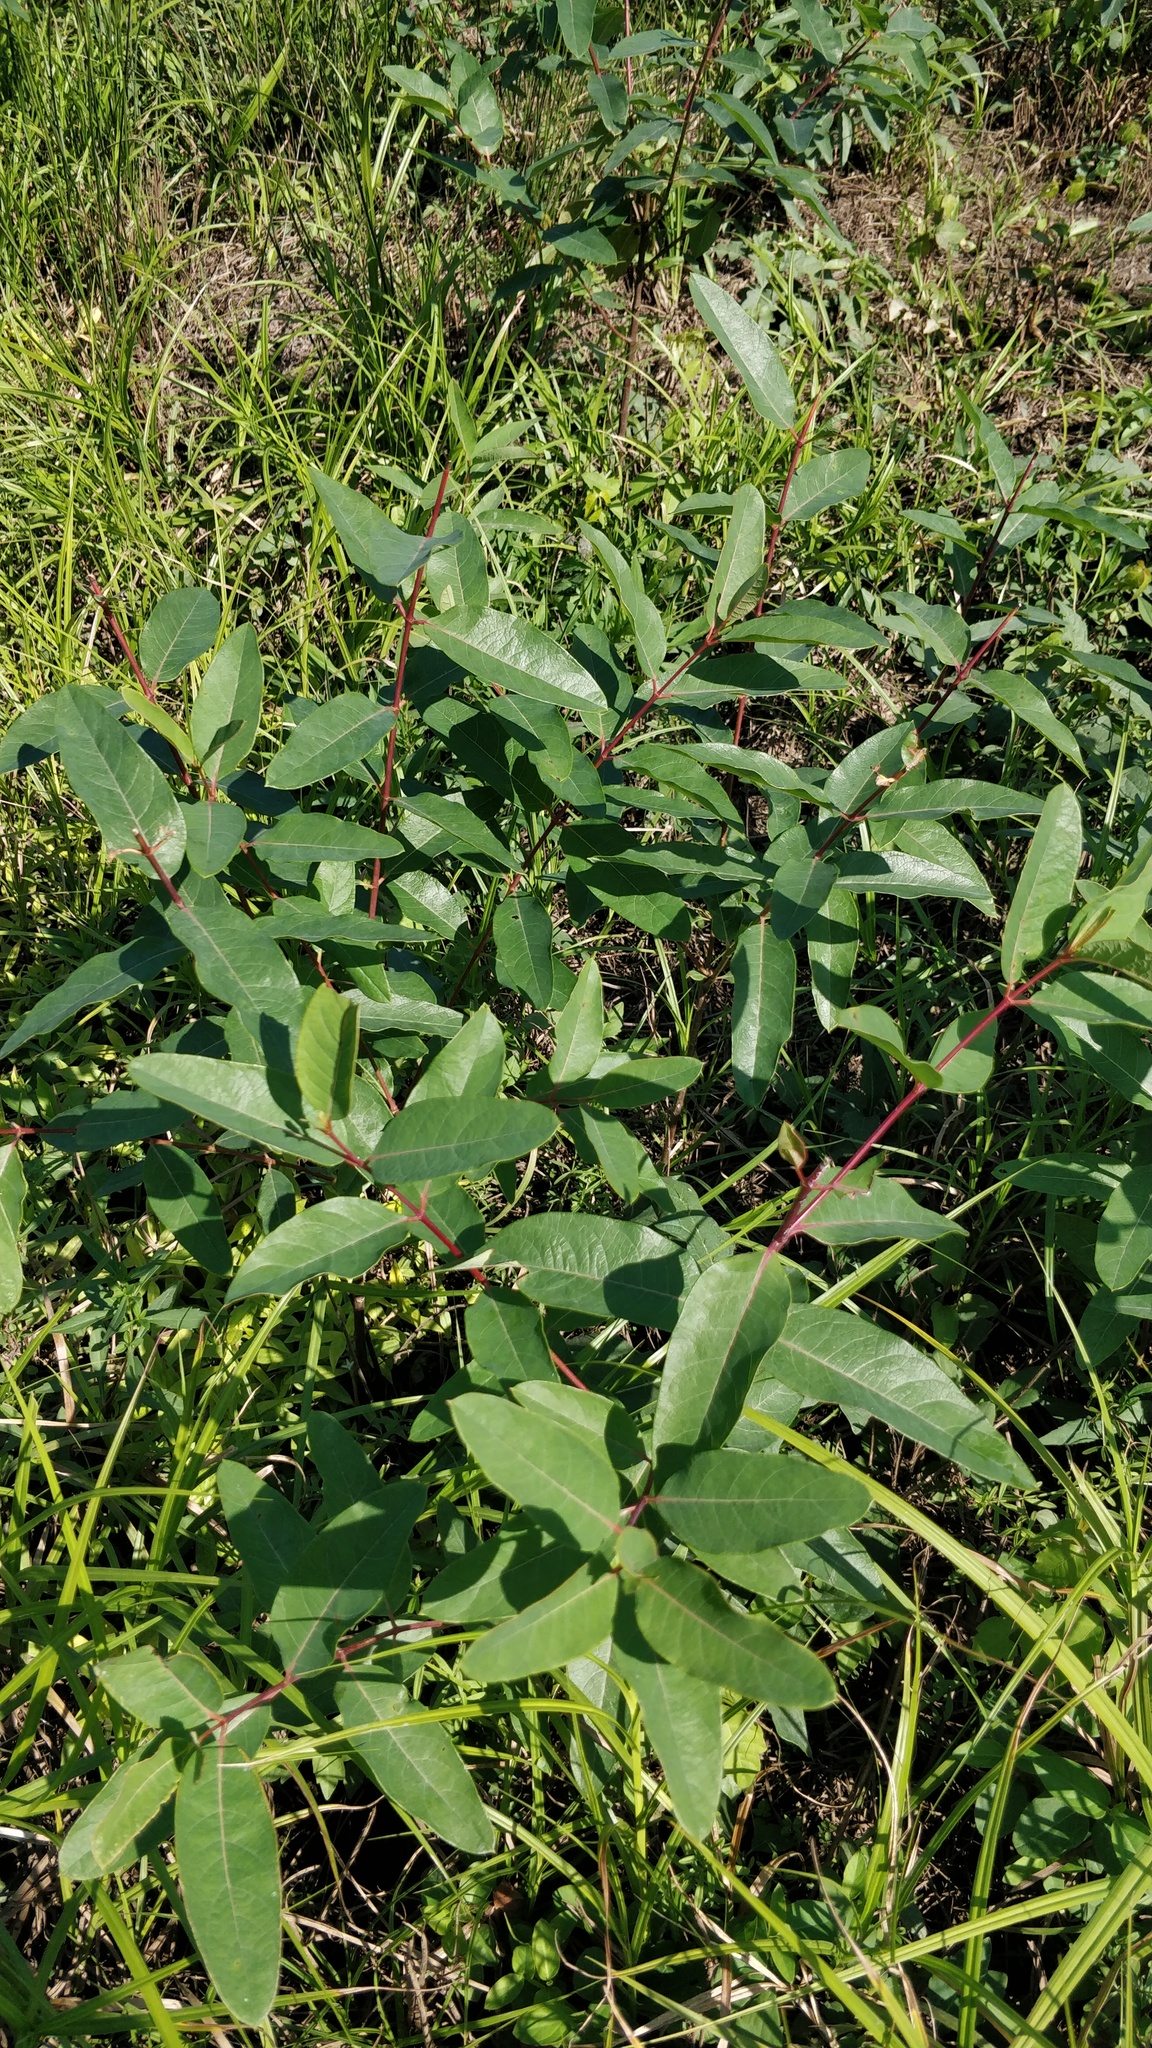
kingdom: Plantae
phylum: Tracheophyta
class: Magnoliopsida
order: Gentianales
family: Apocynaceae
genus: Apocynum
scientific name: Apocynum cannabinum
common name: Hemp dogbane
